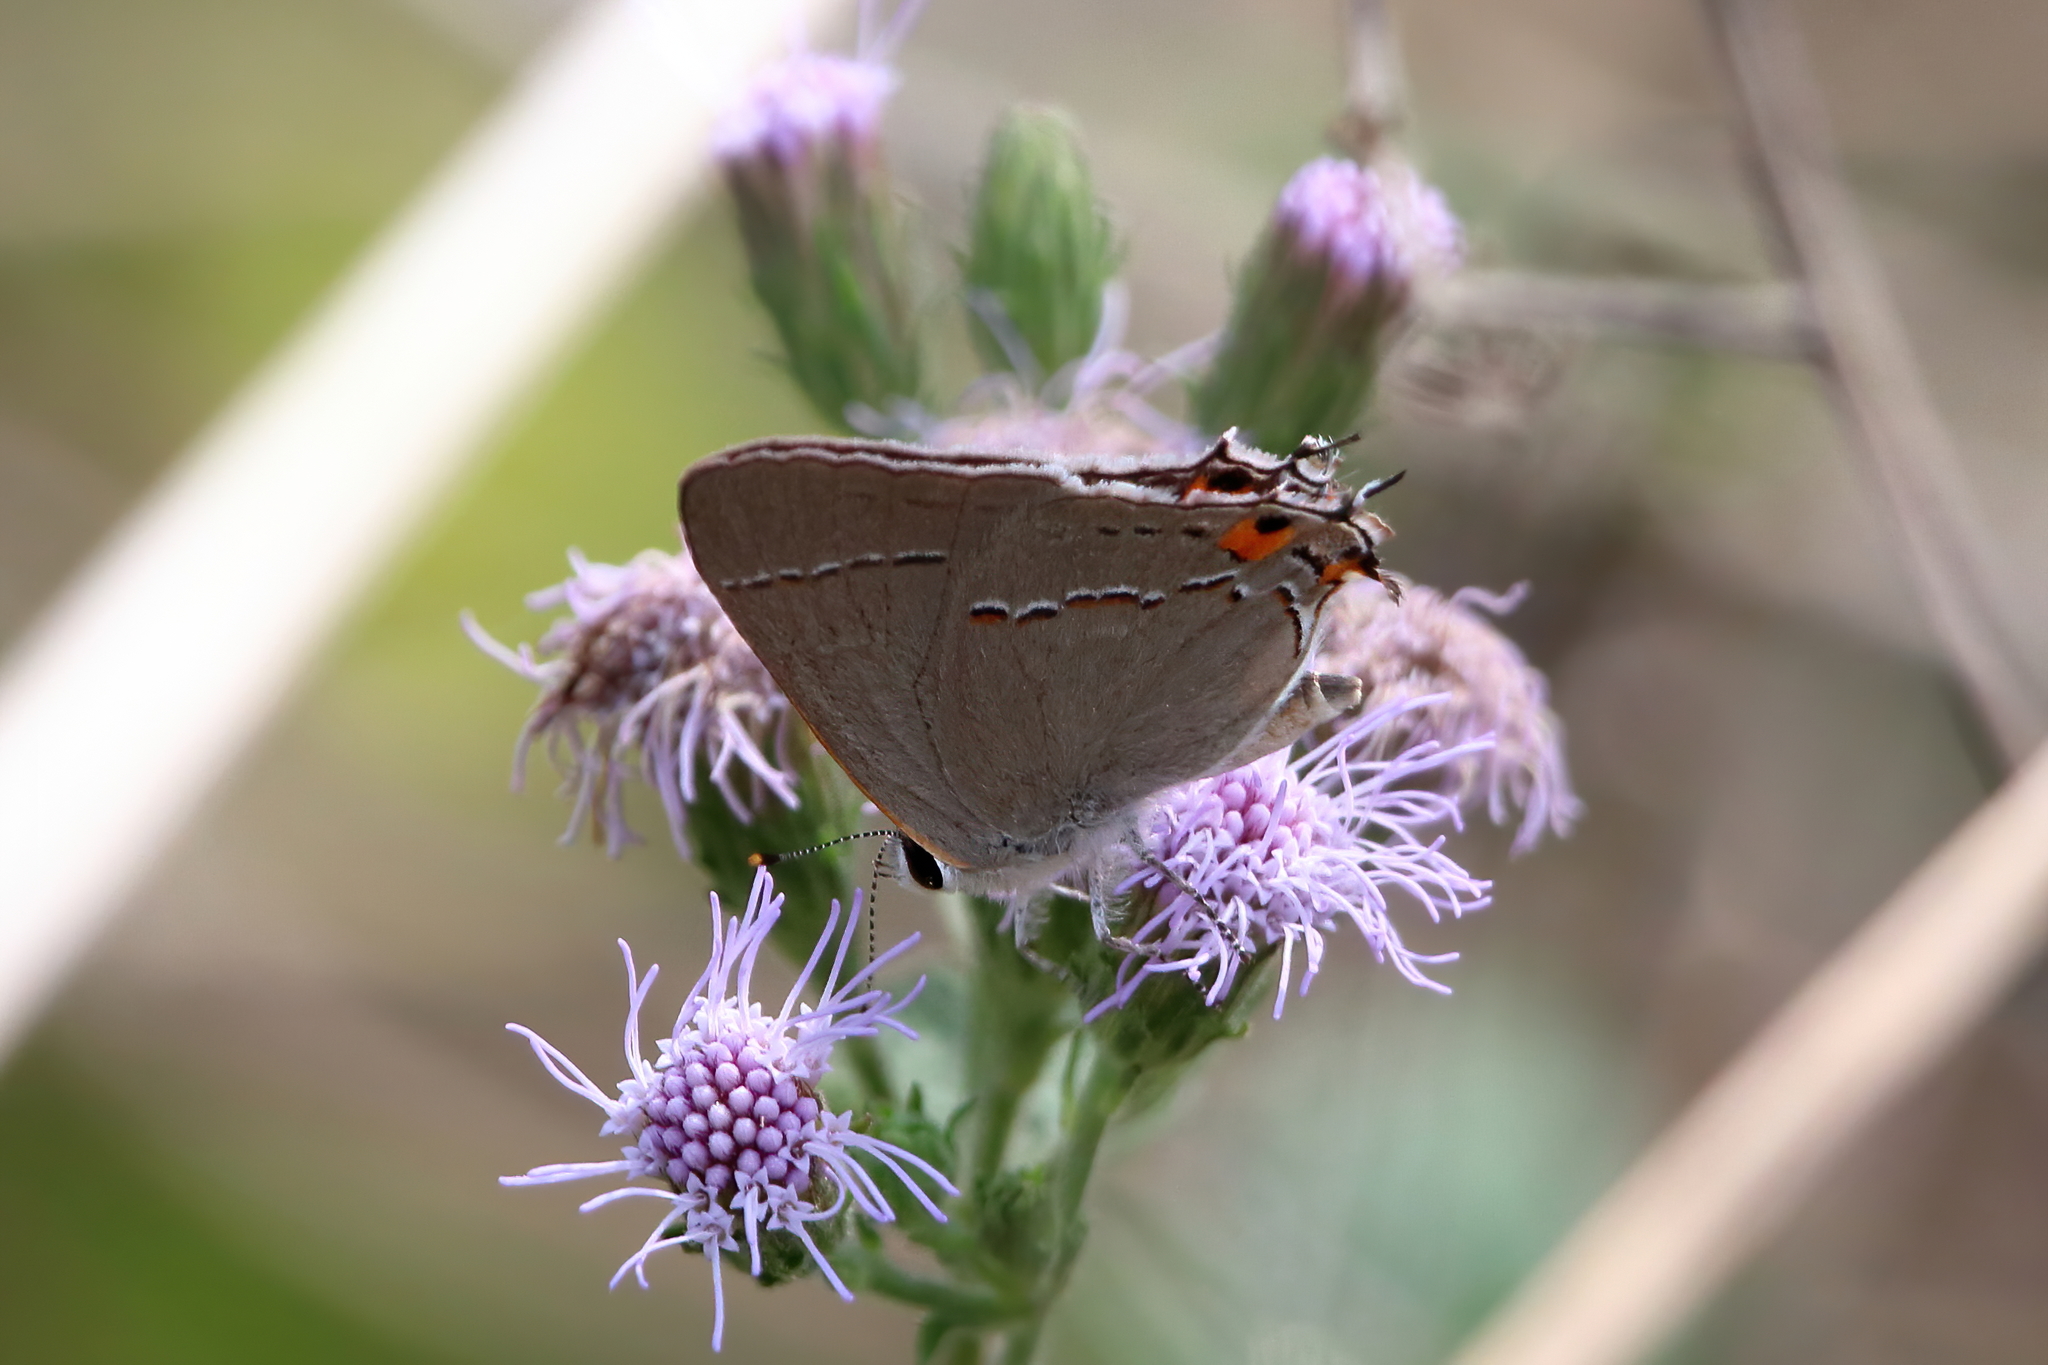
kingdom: Animalia
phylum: Arthropoda
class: Insecta
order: Lepidoptera
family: Lycaenidae
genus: Strymon
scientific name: Strymon melinus
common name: Gray hairstreak
